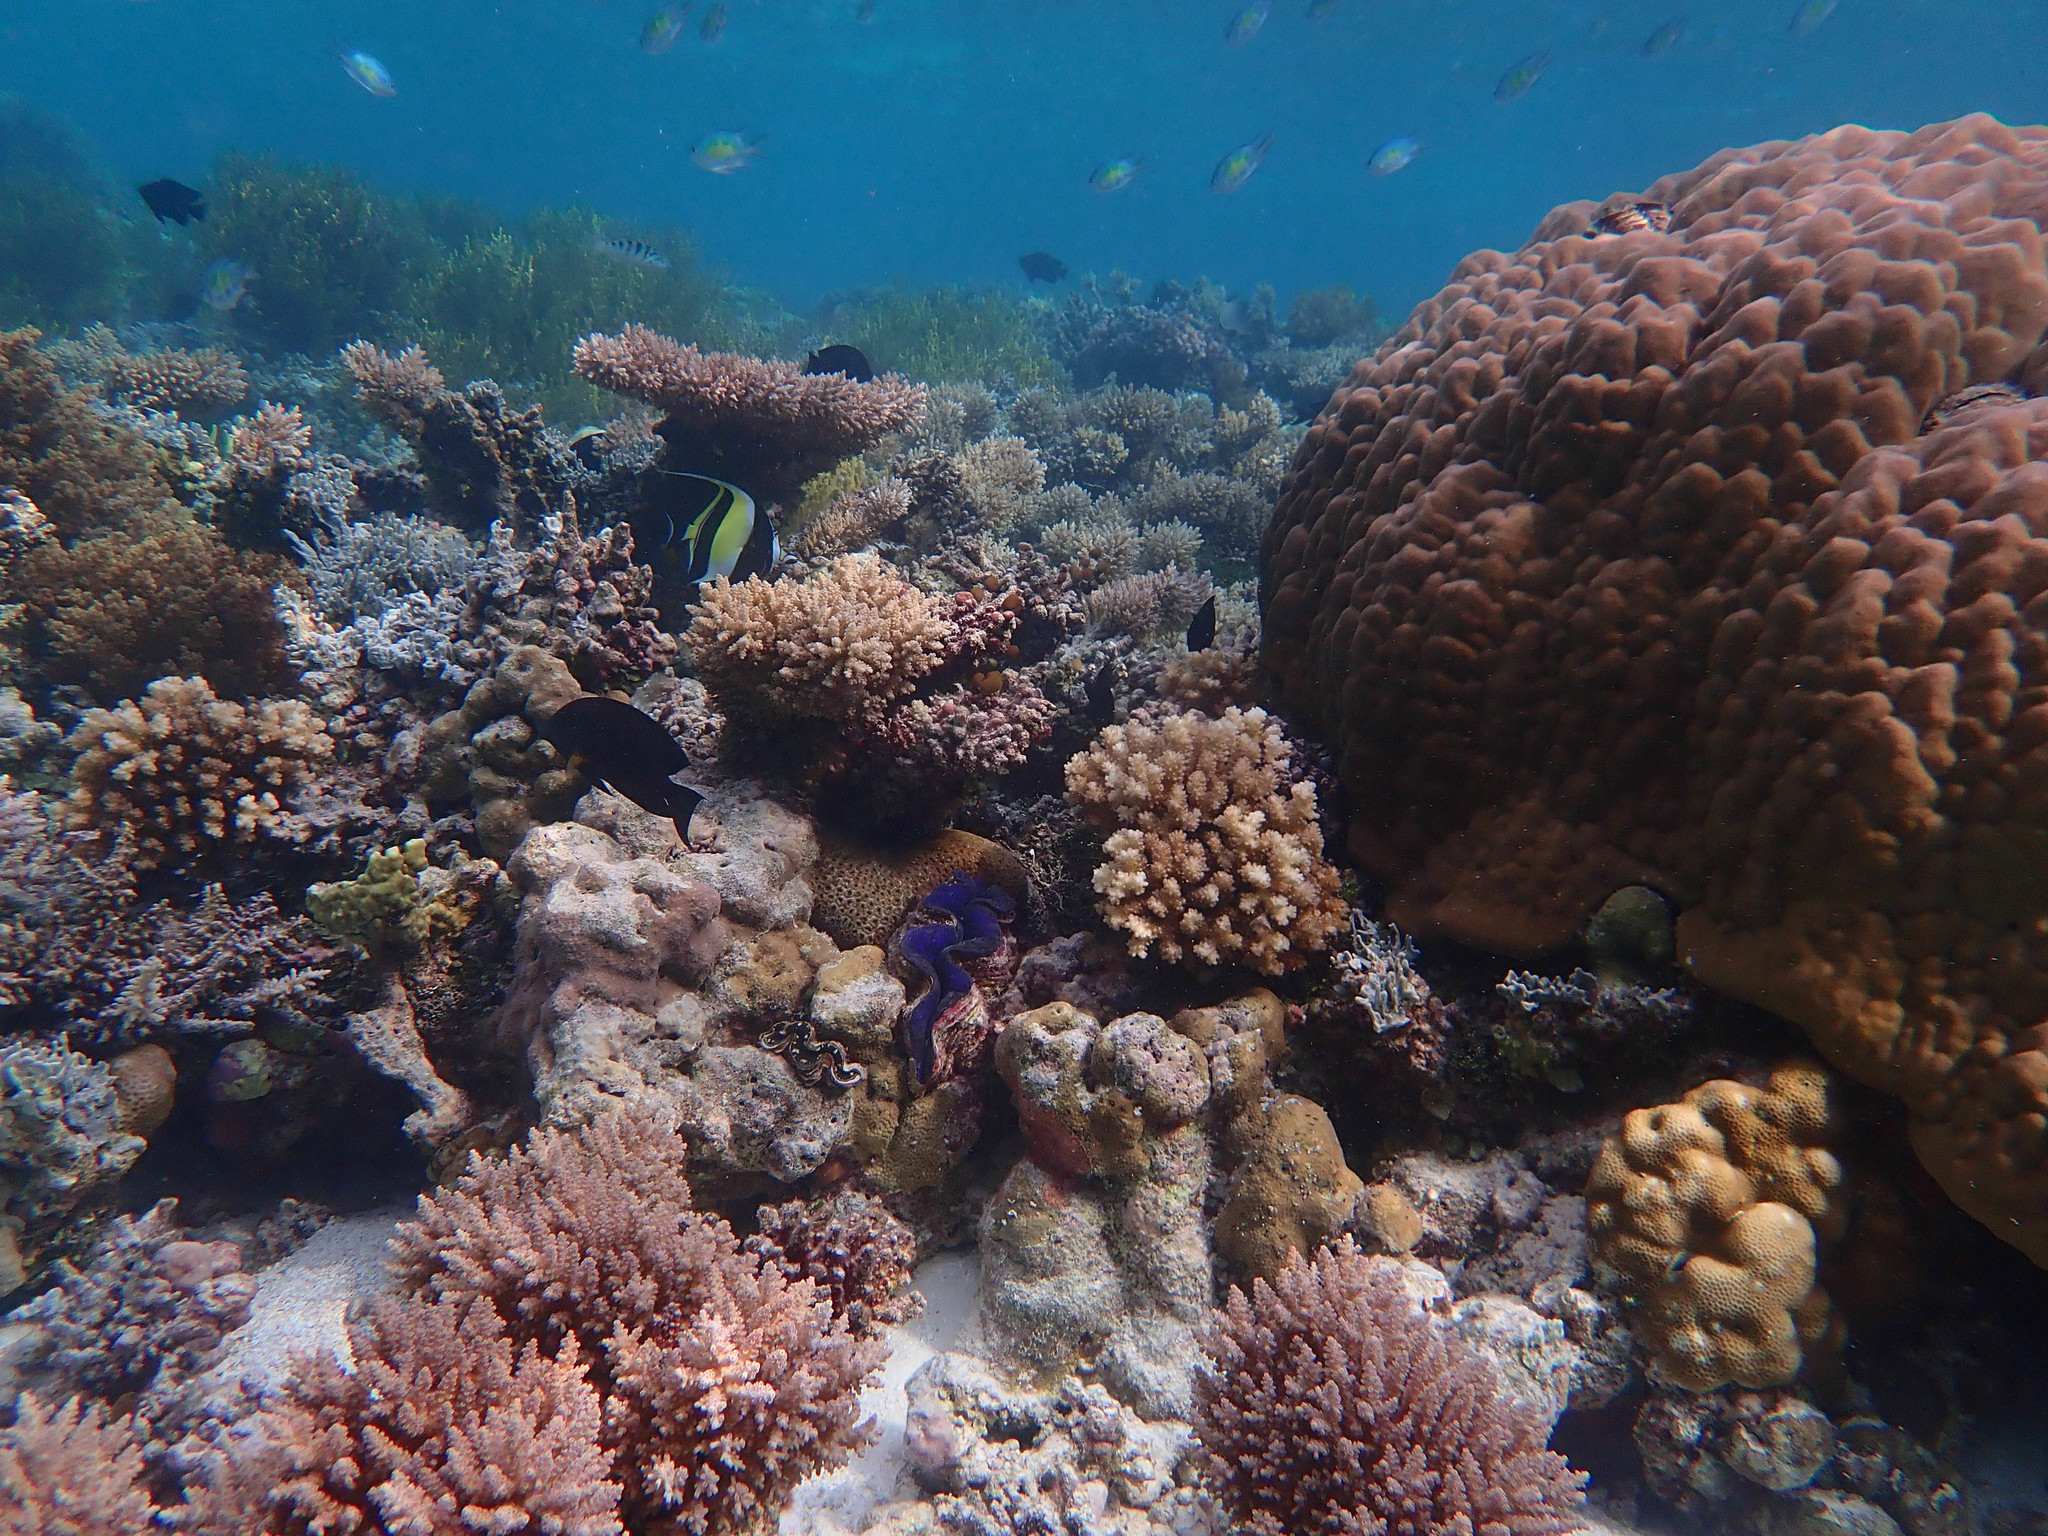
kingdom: Animalia
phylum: Chordata
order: Perciformes
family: Zanclidae
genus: Zanclus
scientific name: Zanclus cornutus
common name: Moorish idol
